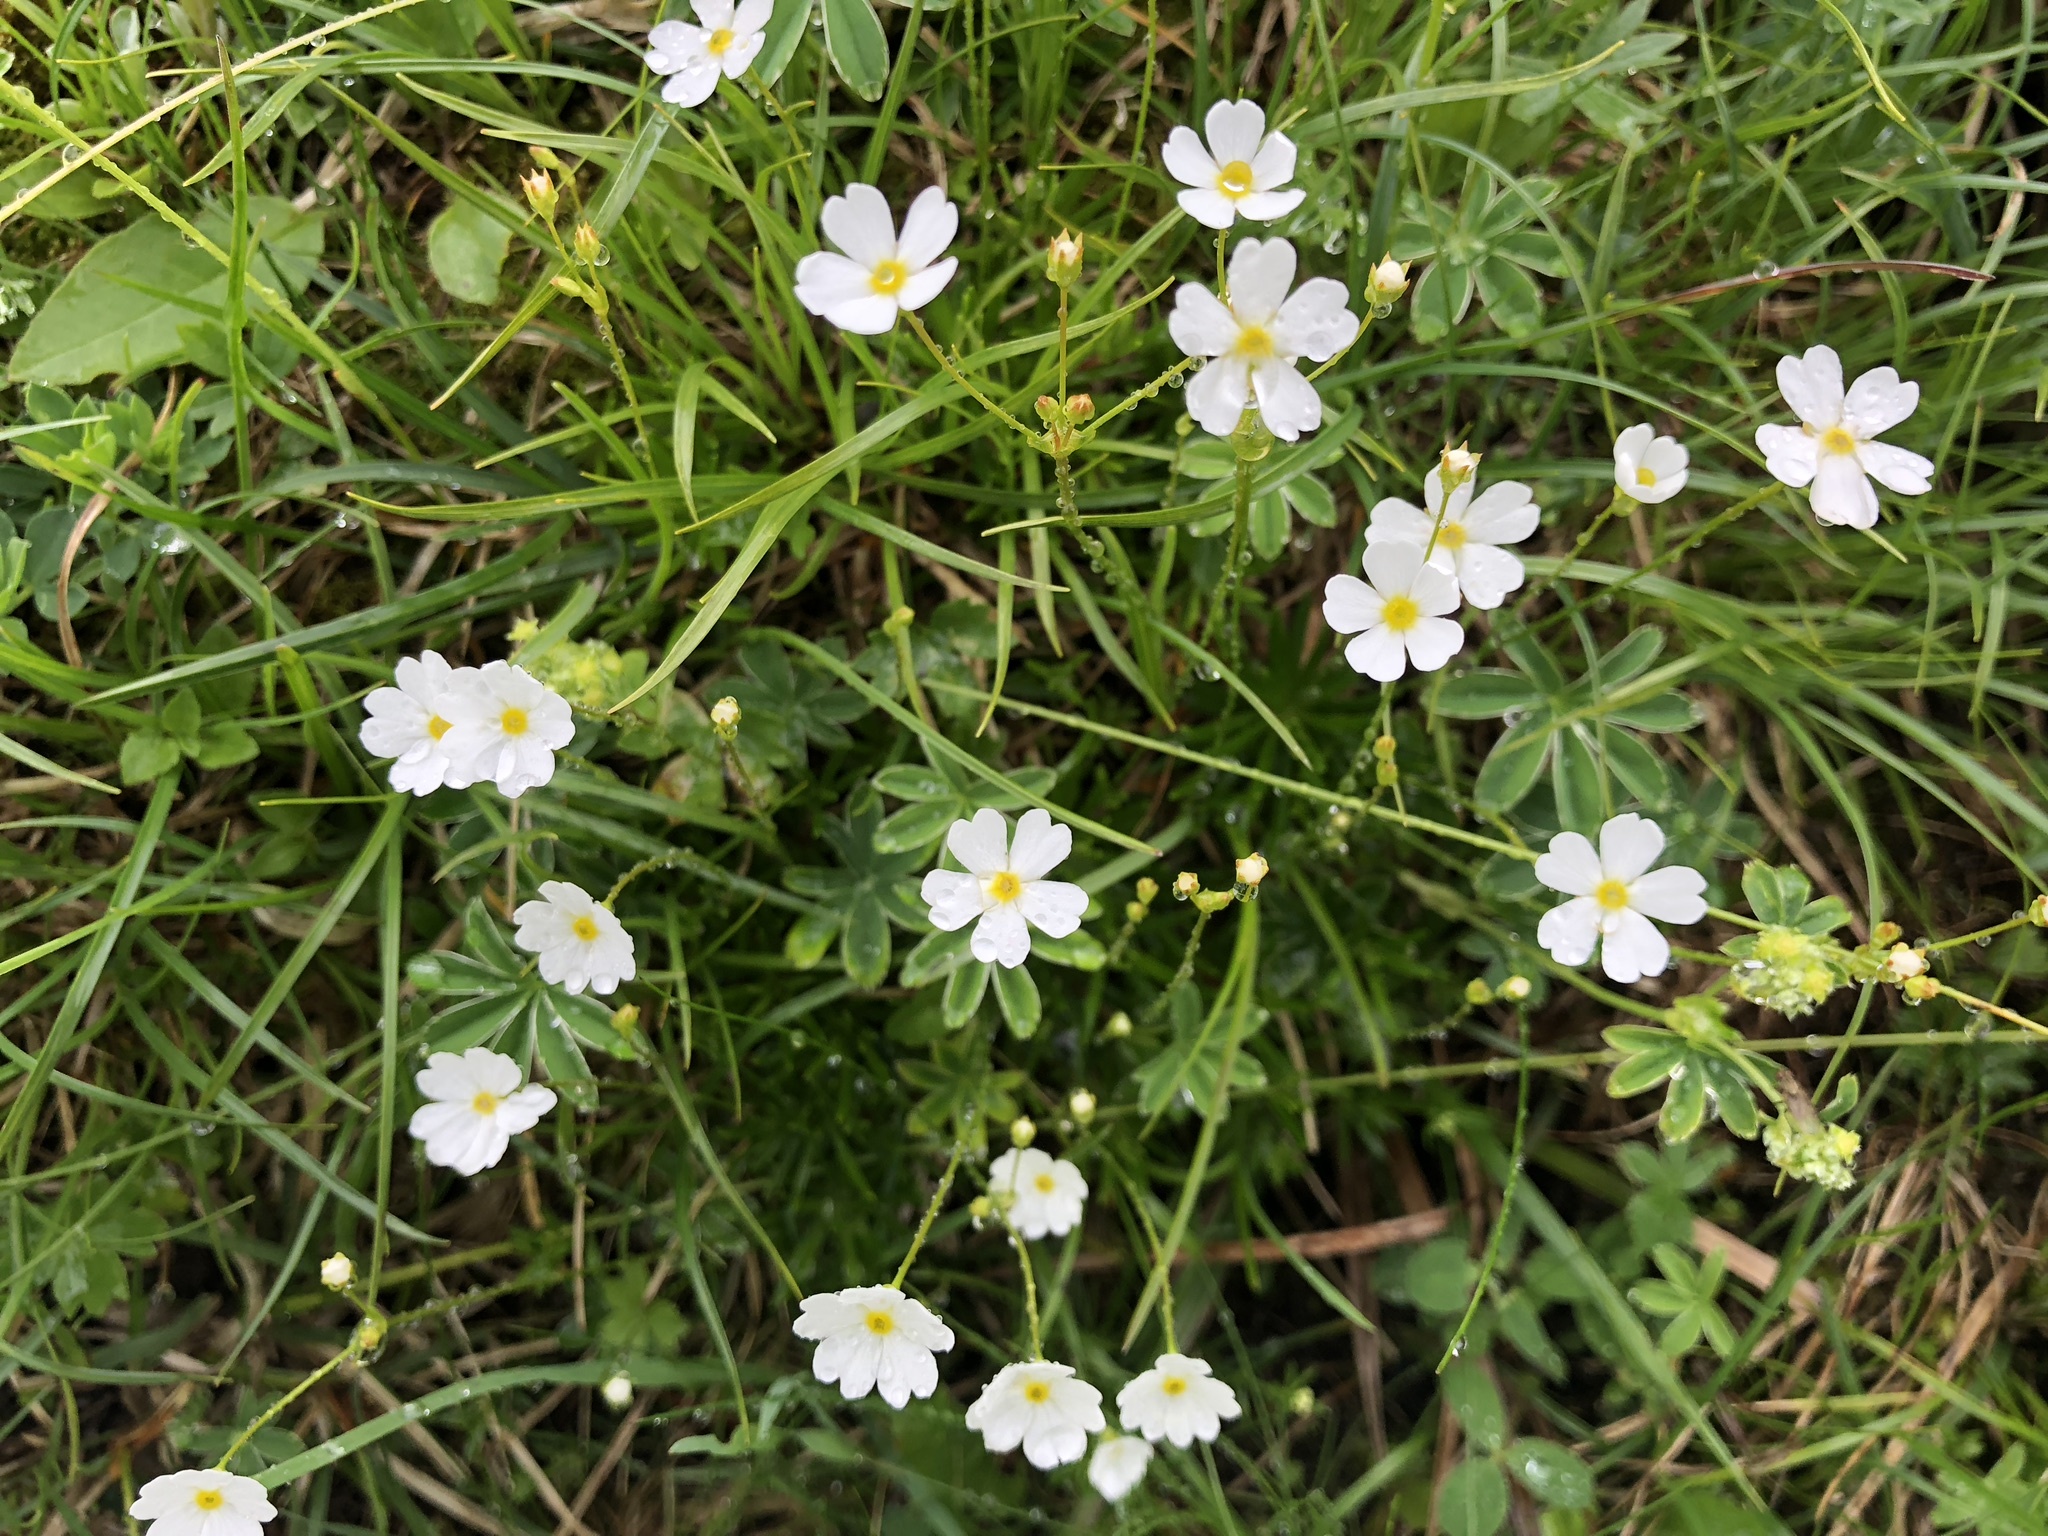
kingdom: Plantae
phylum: Tracheophyta
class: Magnoliopsida
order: Ericales
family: Primulaceae
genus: Androsace
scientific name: Androsace lactea
